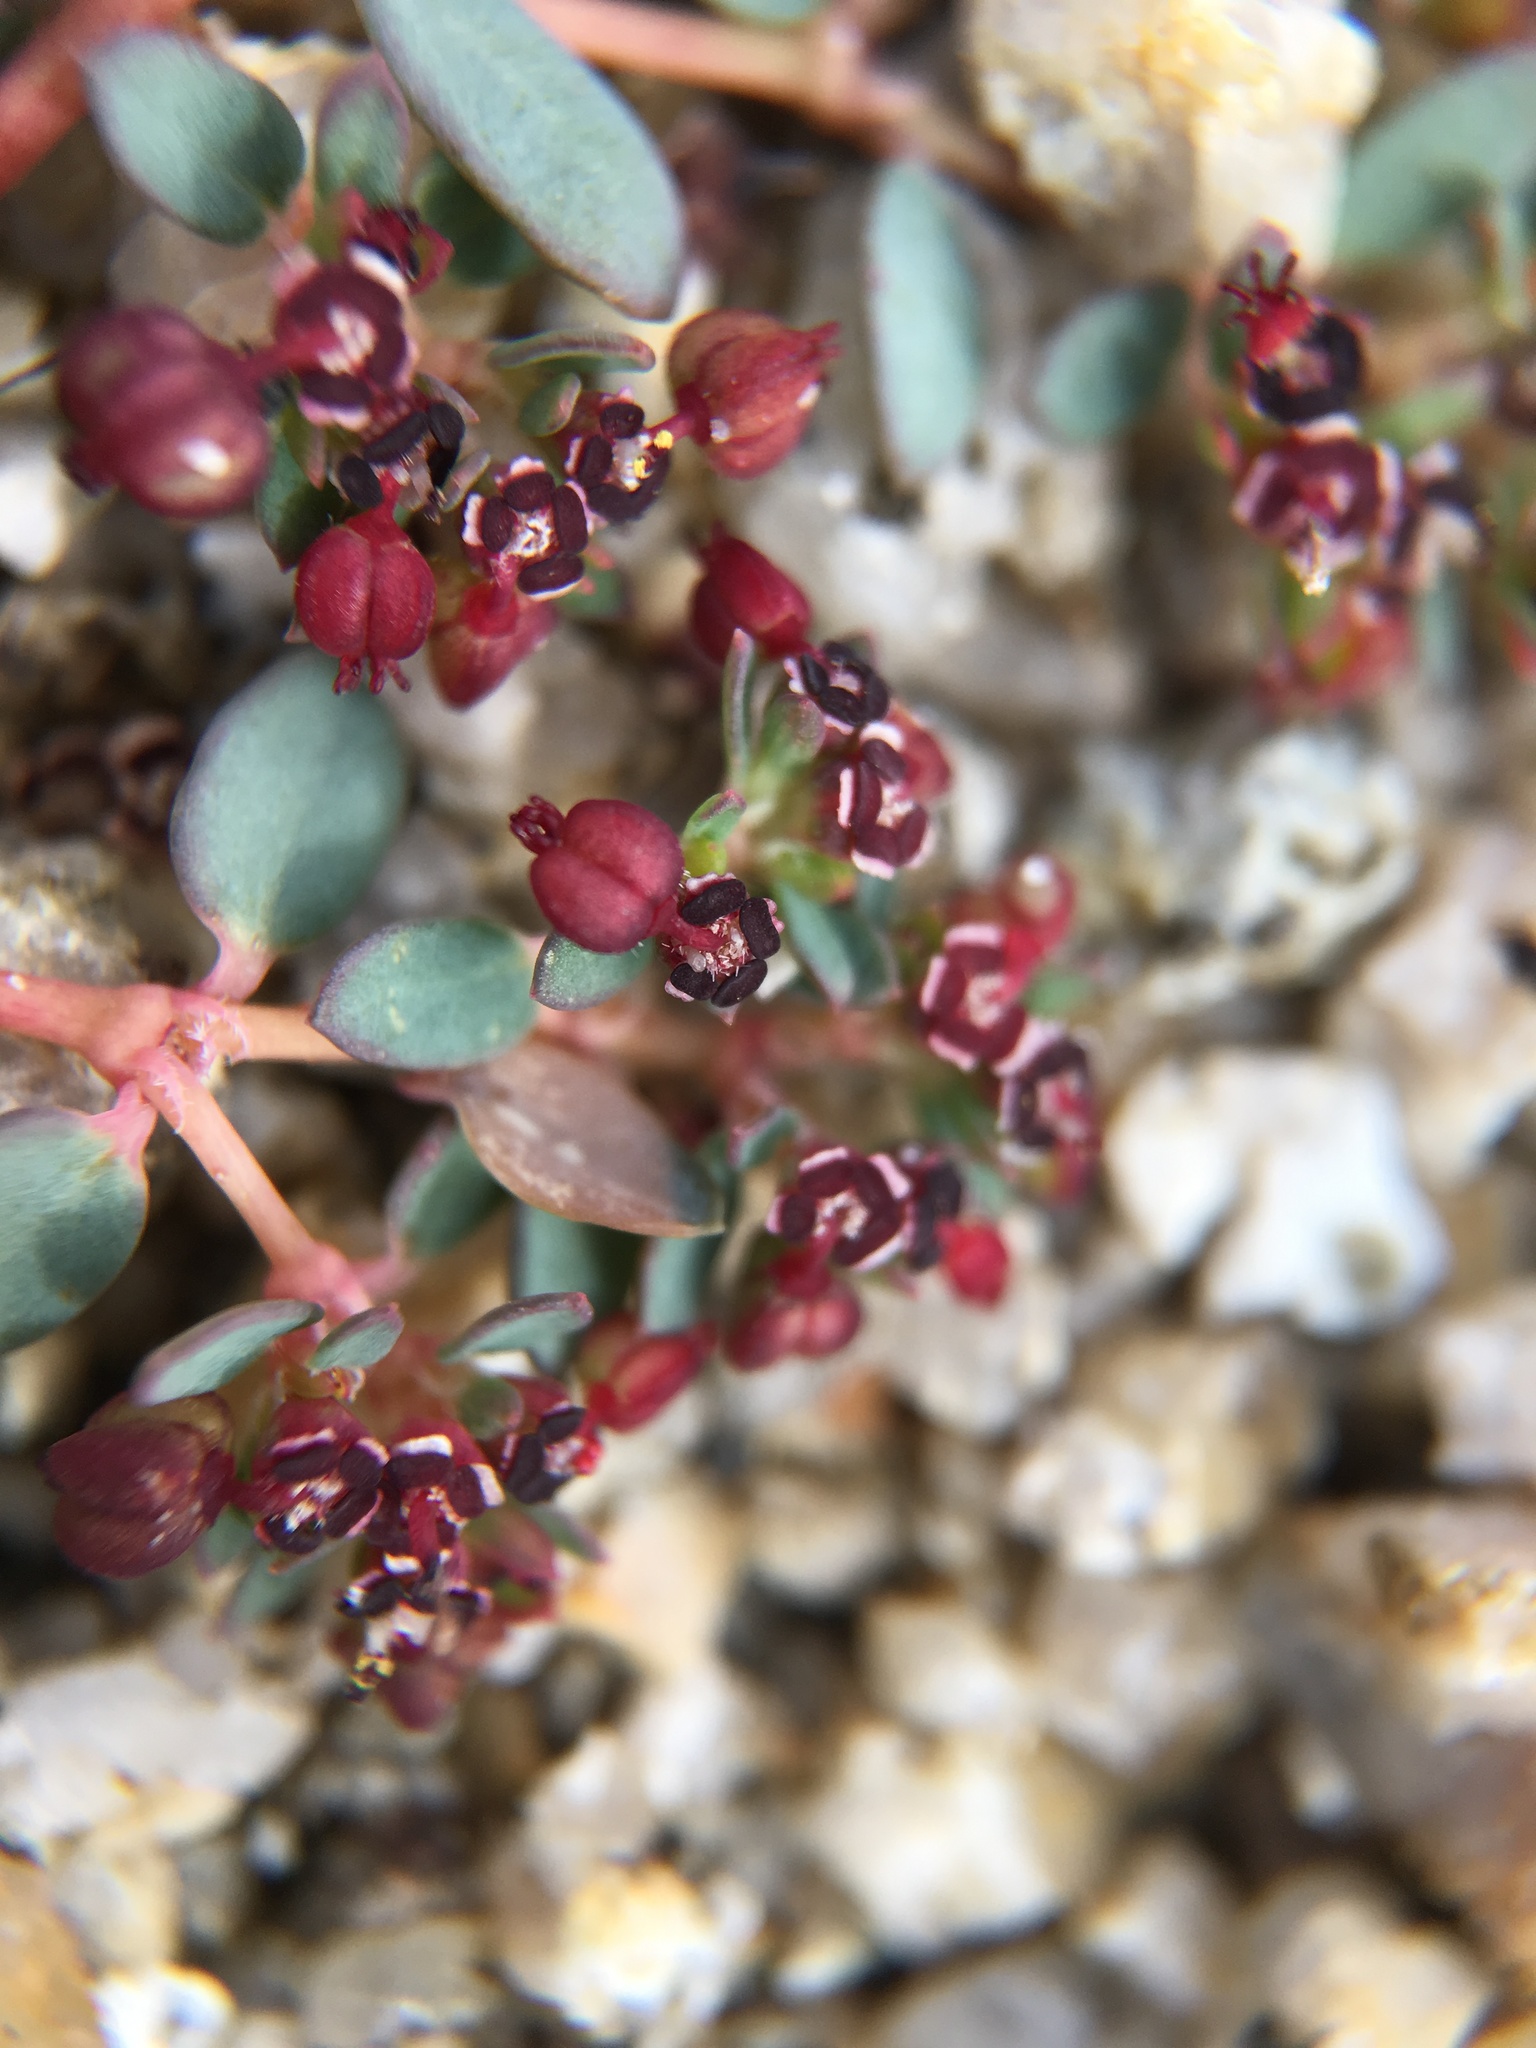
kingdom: Plantae
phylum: Tracheophyta
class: Magnoliopsida
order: Malpighiales
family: Euphorbiaceae
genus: Euphorbia
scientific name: Euphorbia polycarpa
